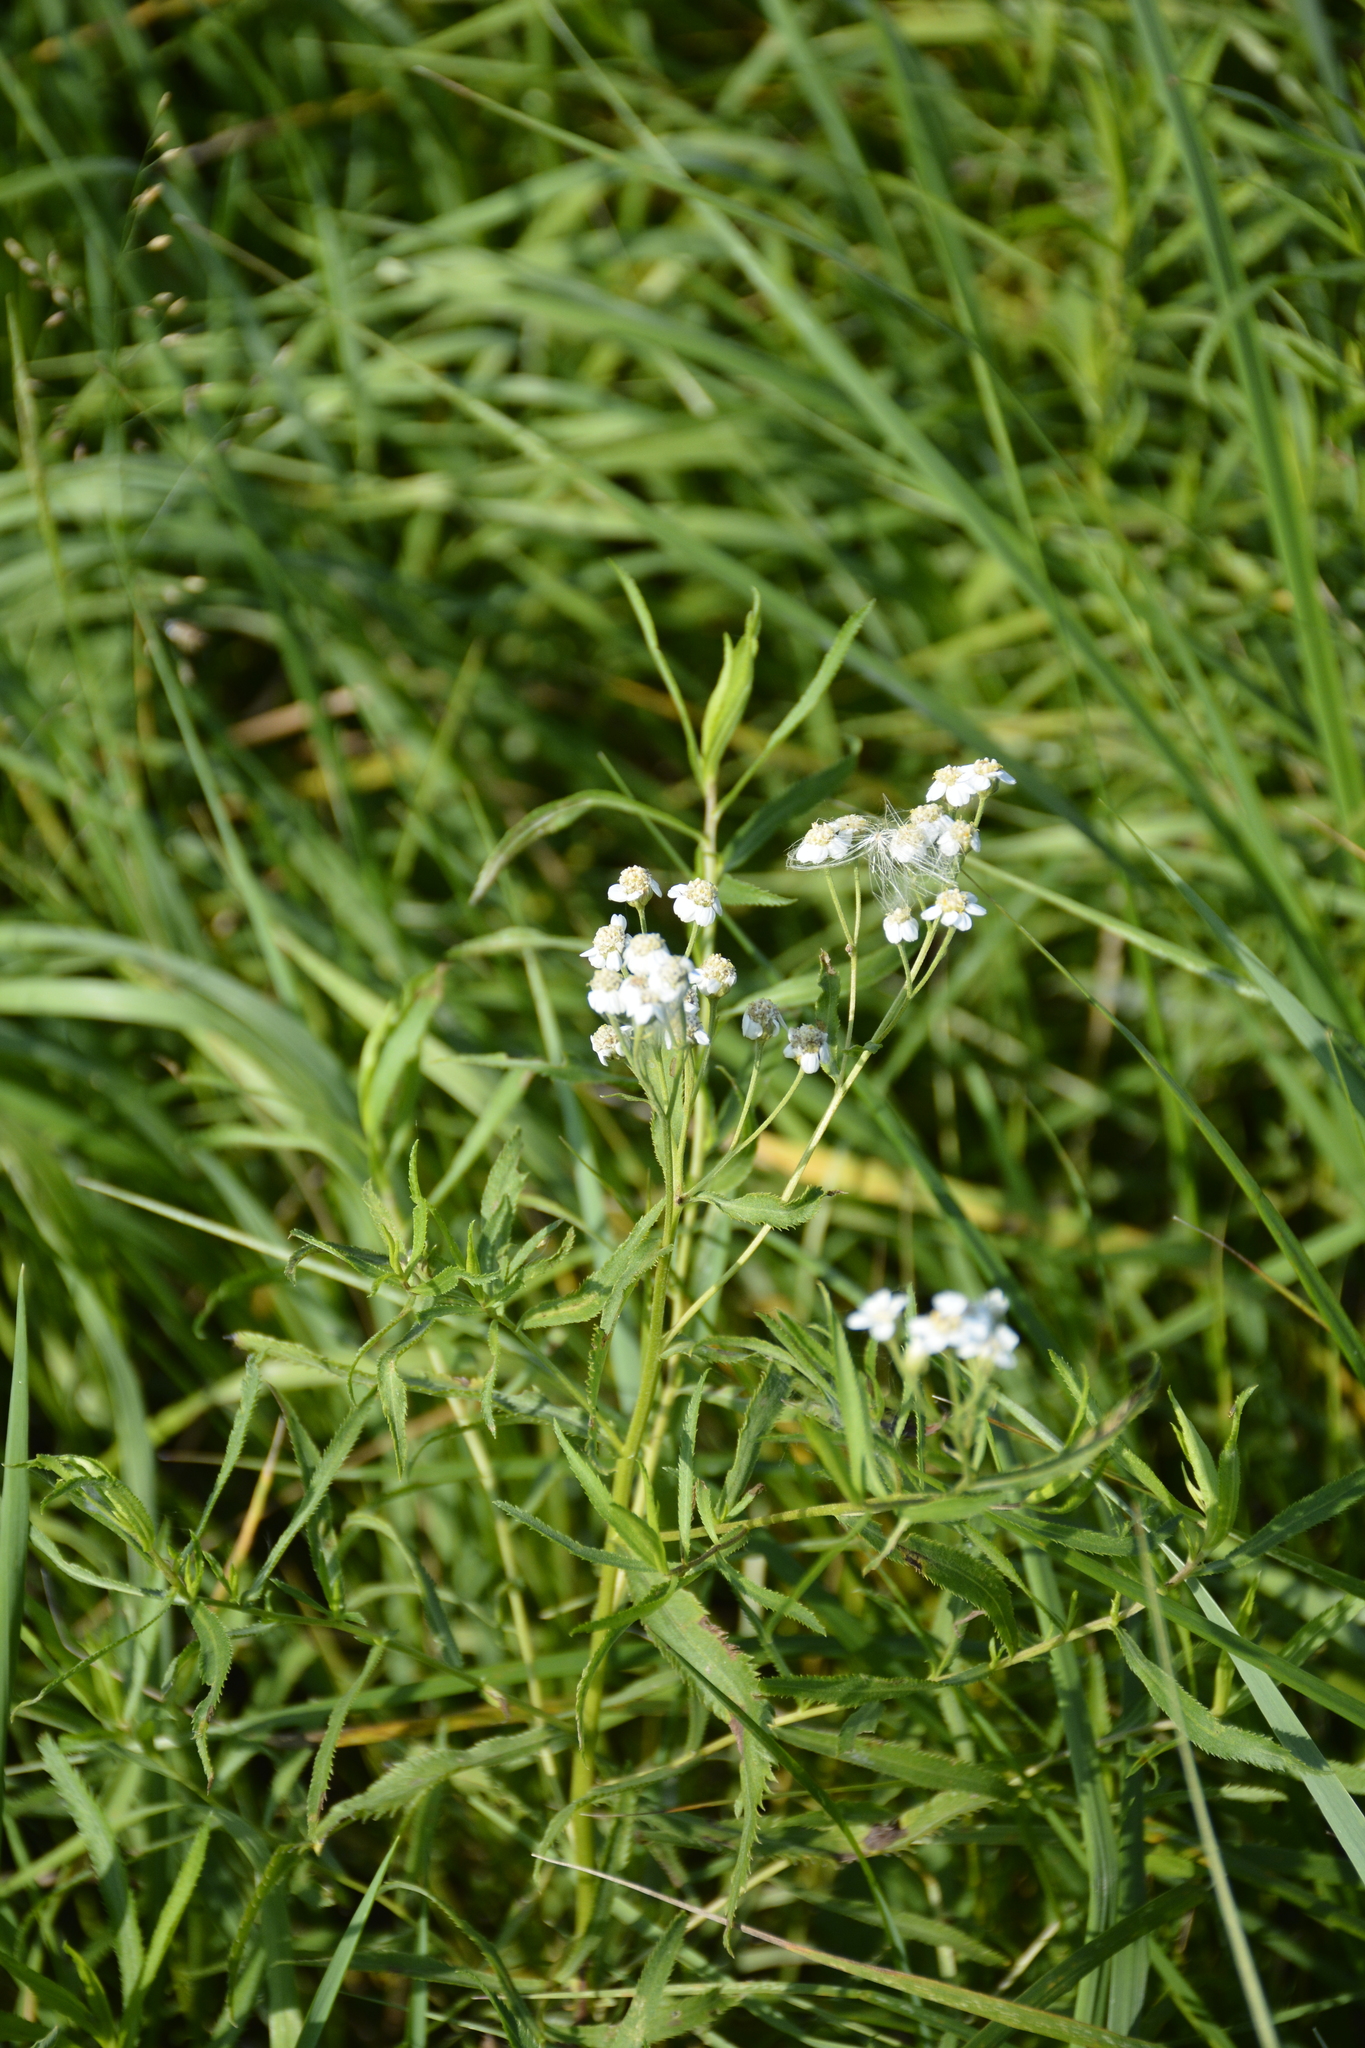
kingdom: Plantae
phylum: Tracheophyta
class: Magnoliopsida
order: Asterales
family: Asteraceae
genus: Achillea
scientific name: Achillea salicifolia
